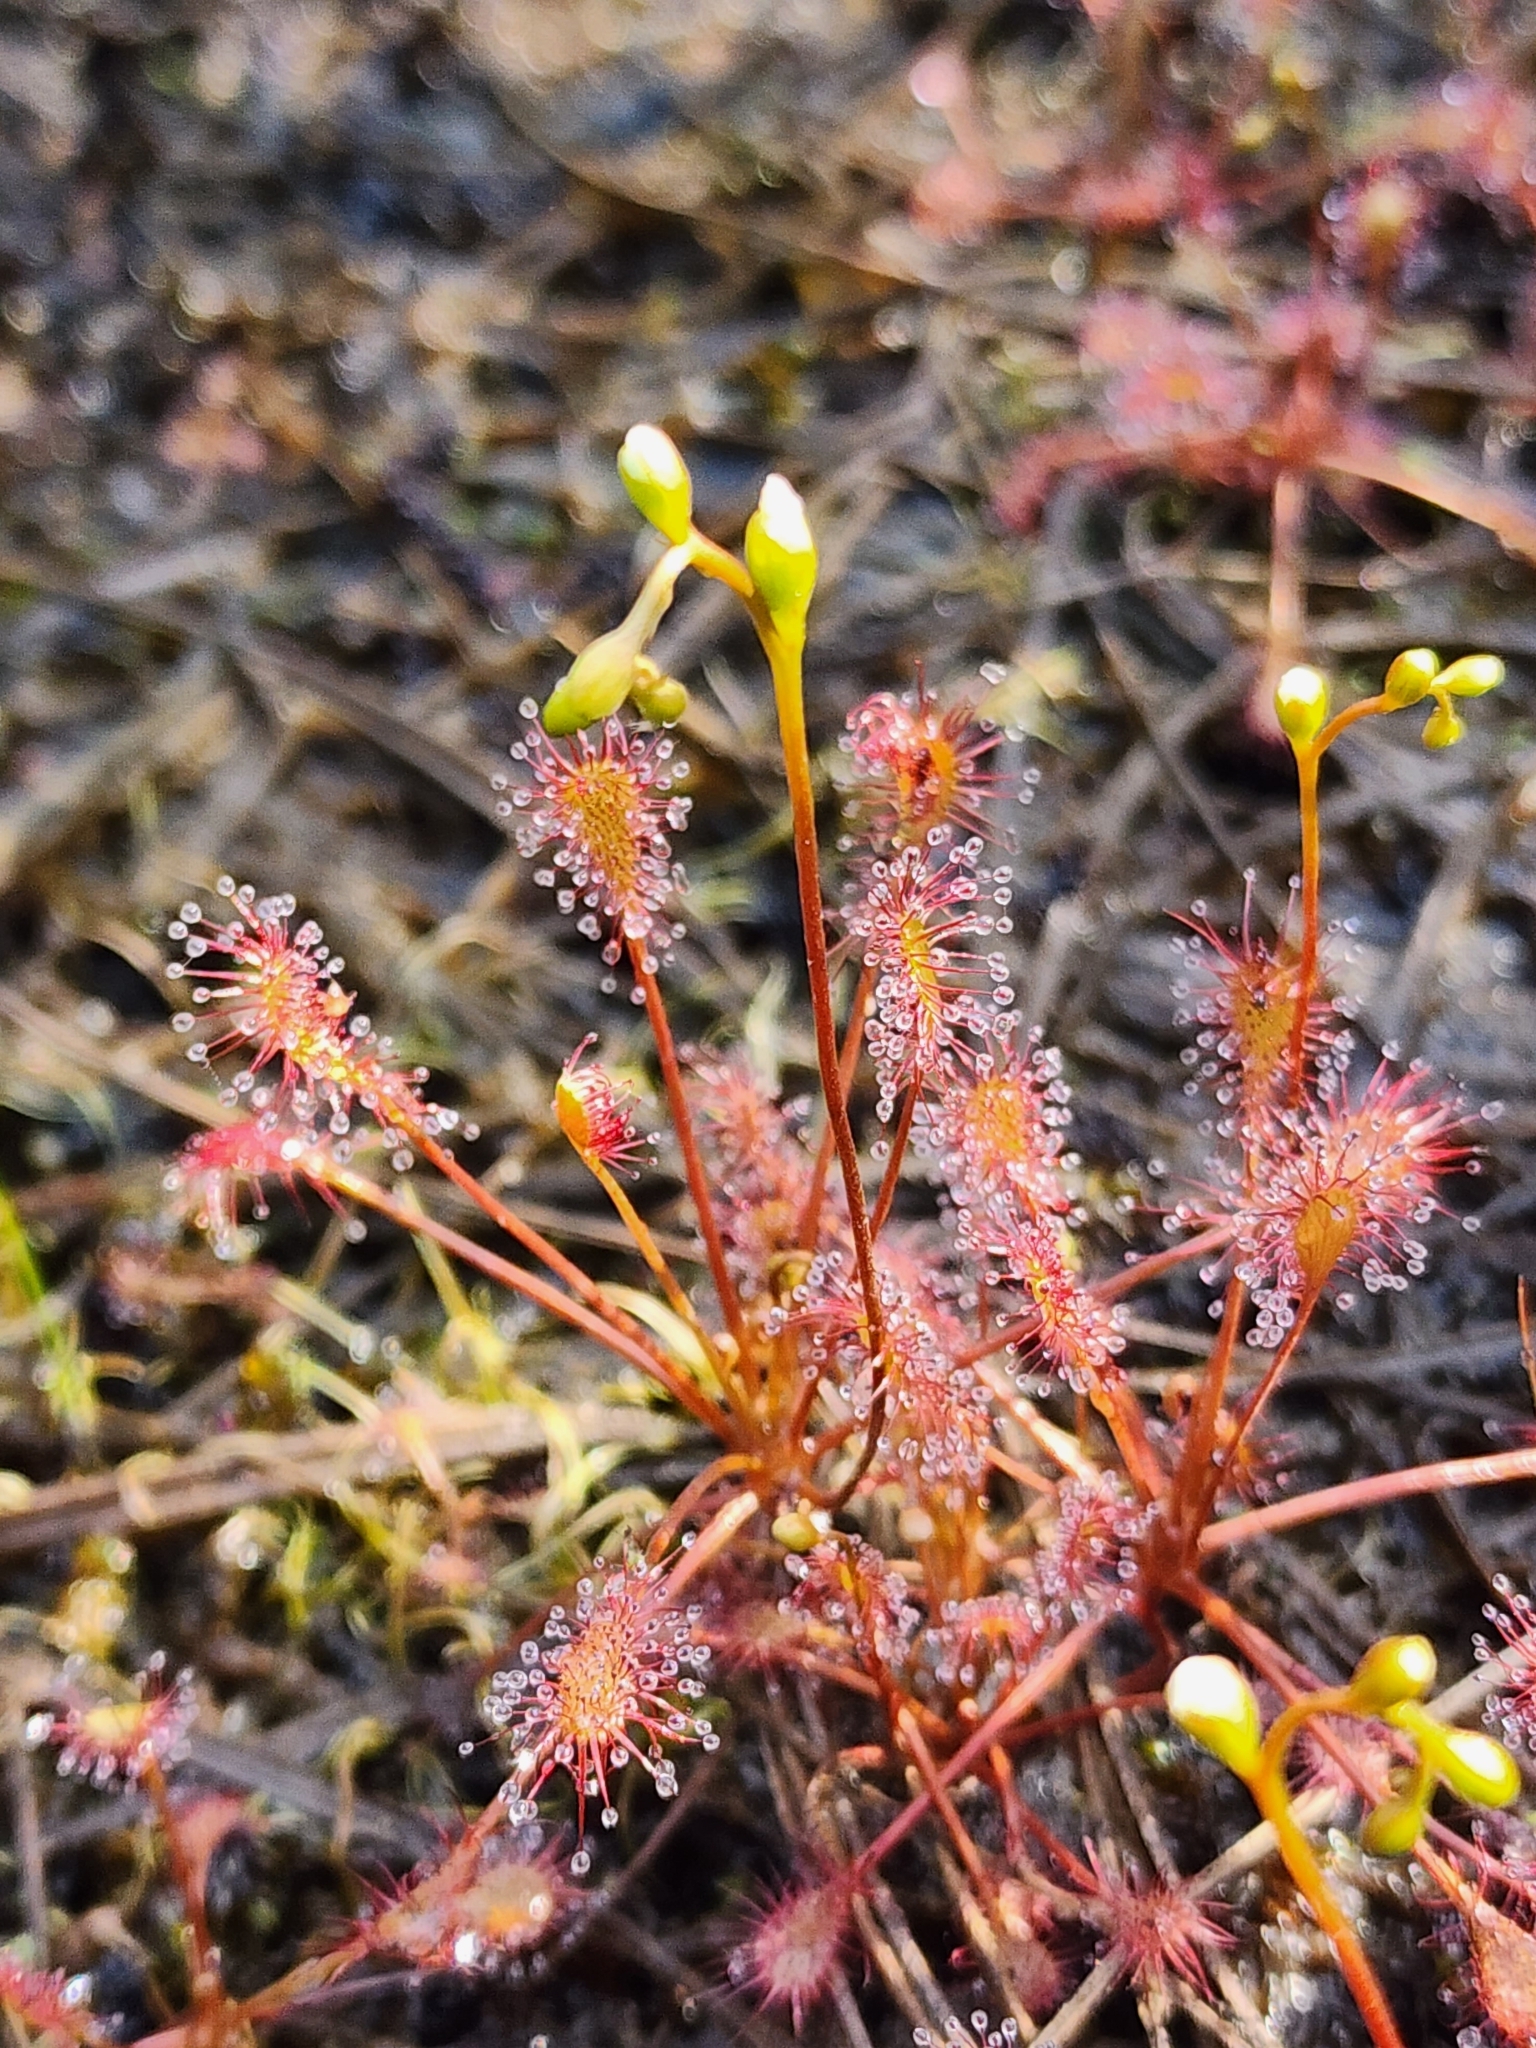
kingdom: Plantae
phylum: Tracheophyta
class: Magnoliopsida
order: Caryophyllales
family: Droseraceae
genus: Drosera
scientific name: Drosera intermedia
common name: Oblong-leaved sundew
